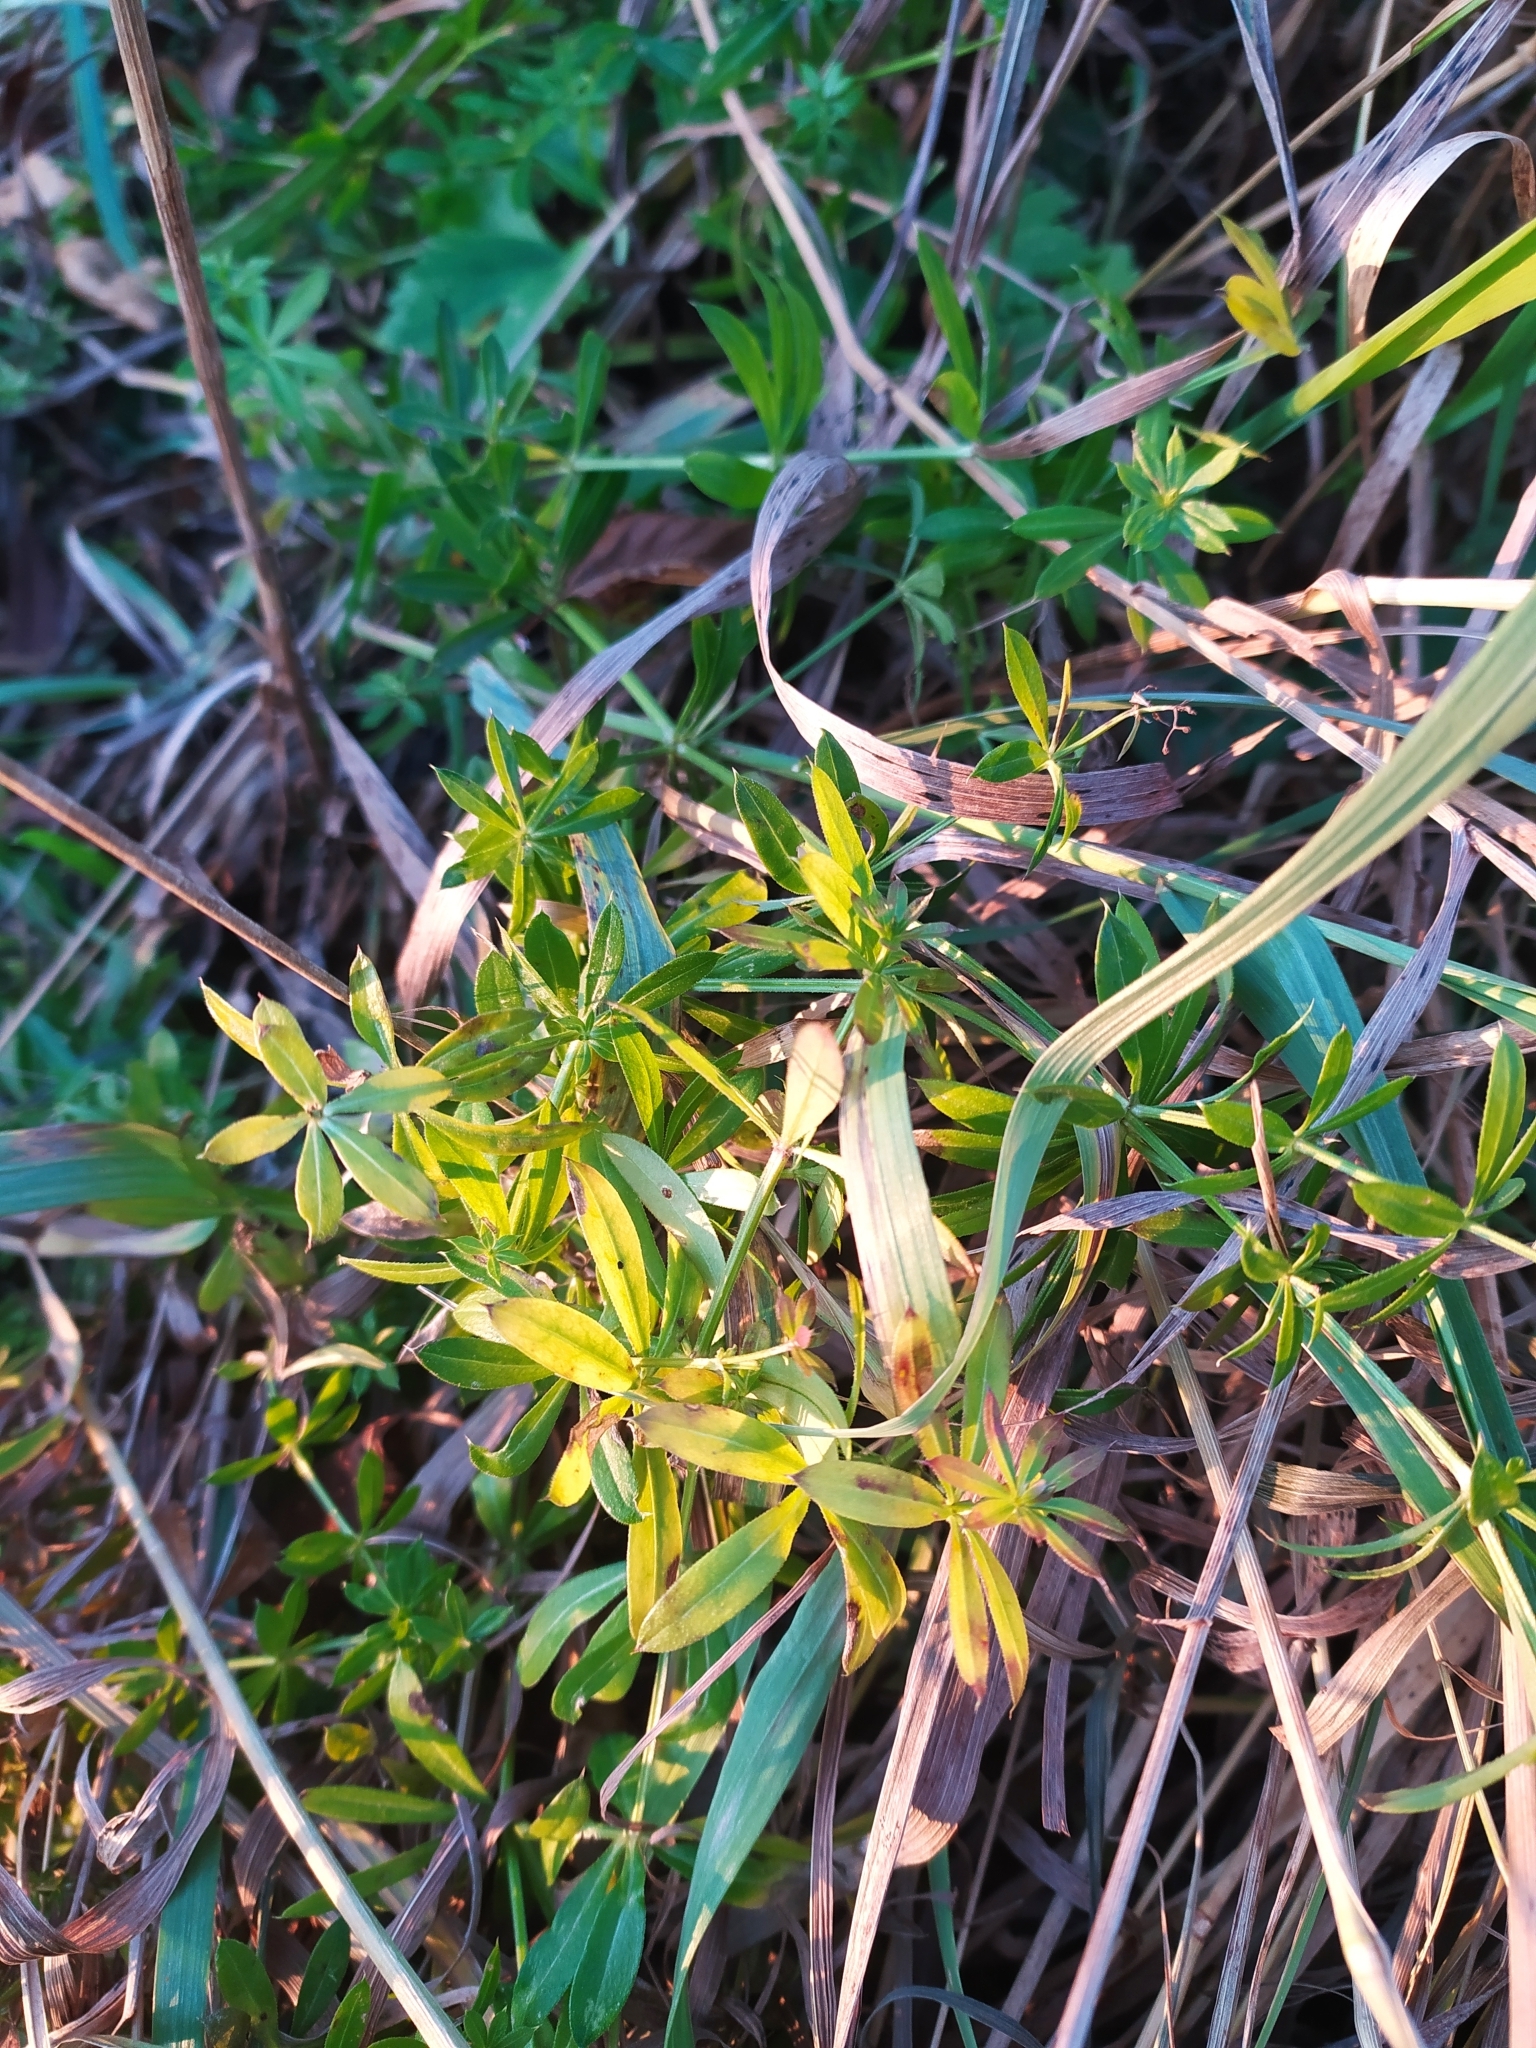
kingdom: Plantae
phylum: Tracheophyta
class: Magnoliopsida
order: Gentianales
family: Rubiaceae
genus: Galium
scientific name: Galium mollugo
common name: Hedge bedstraw
